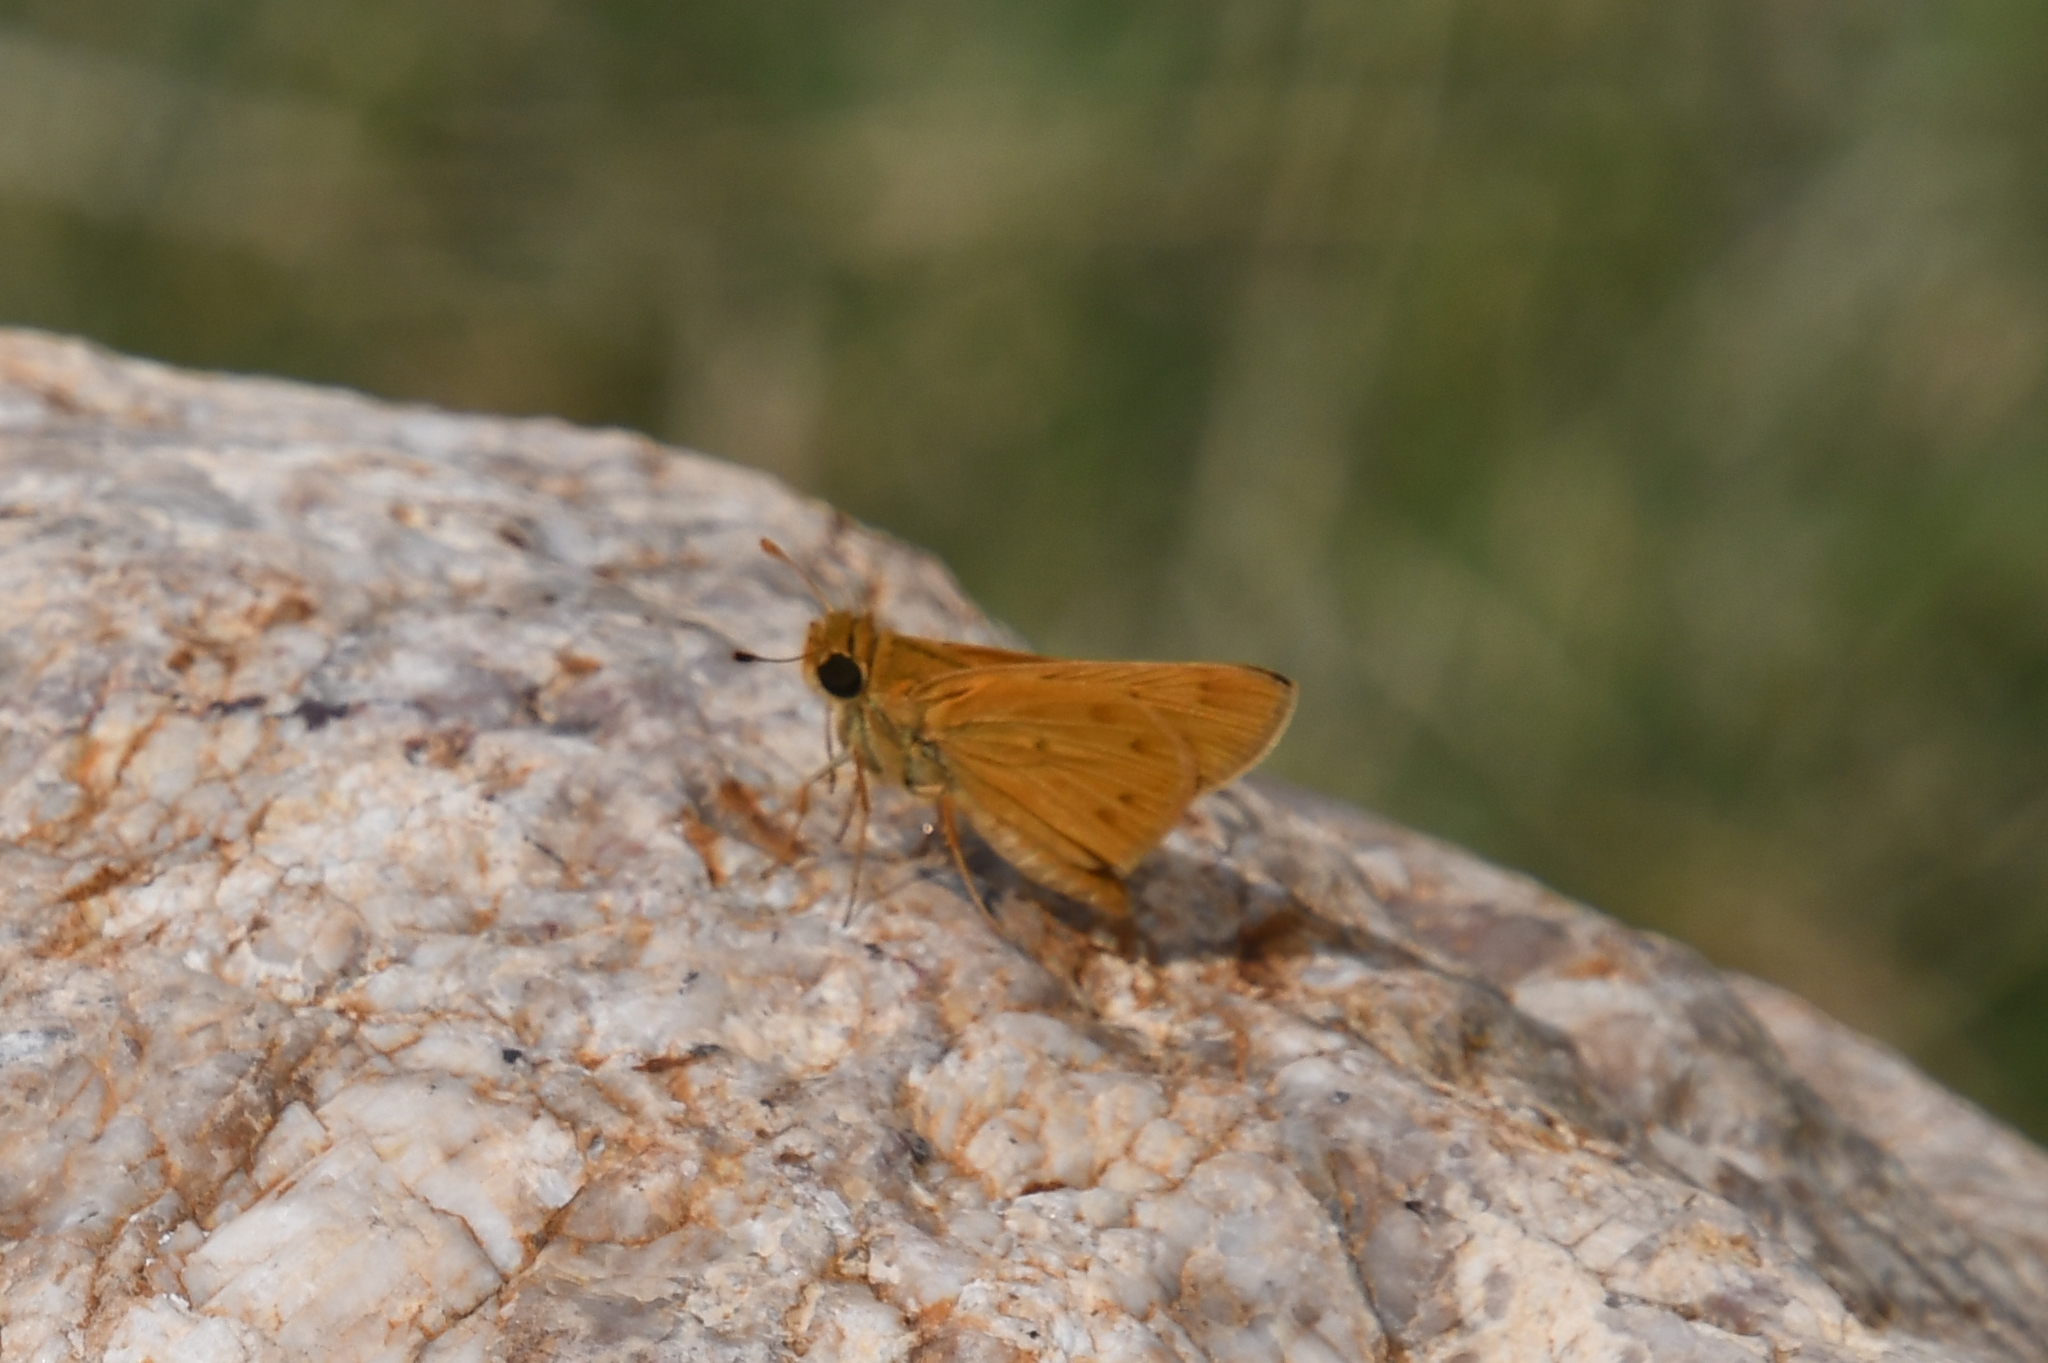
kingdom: Animalia
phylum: Arthropoda
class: Insecta
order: Lepidoptera
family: Hesperiidae
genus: Hylephila
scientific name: Hylephila phyleus
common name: Fiery skipper
